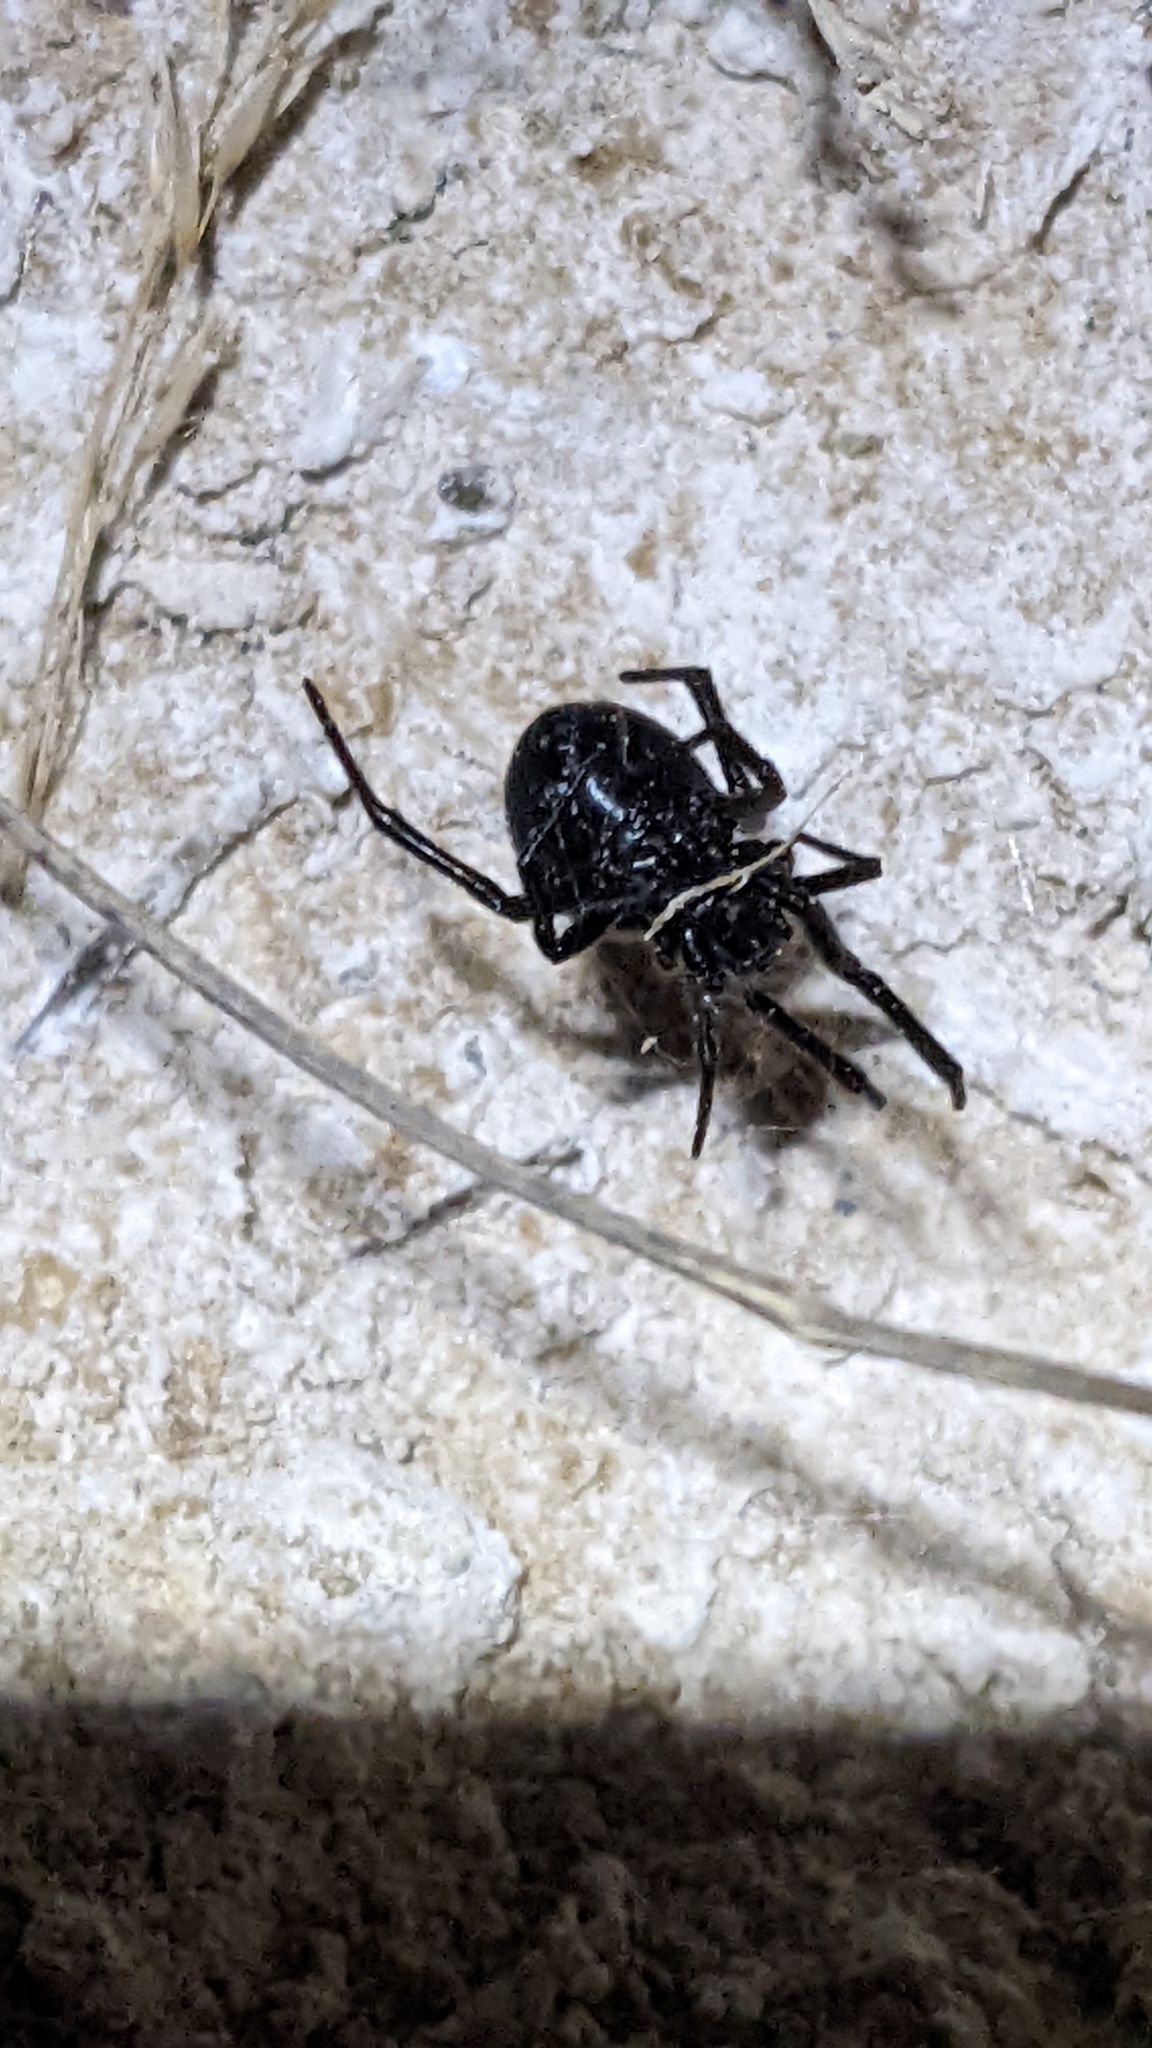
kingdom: Animalia
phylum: Arthropoda
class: Arachnida
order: Araneae
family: Theridiidae
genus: Steatoda
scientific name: Steatoda paykulliana
